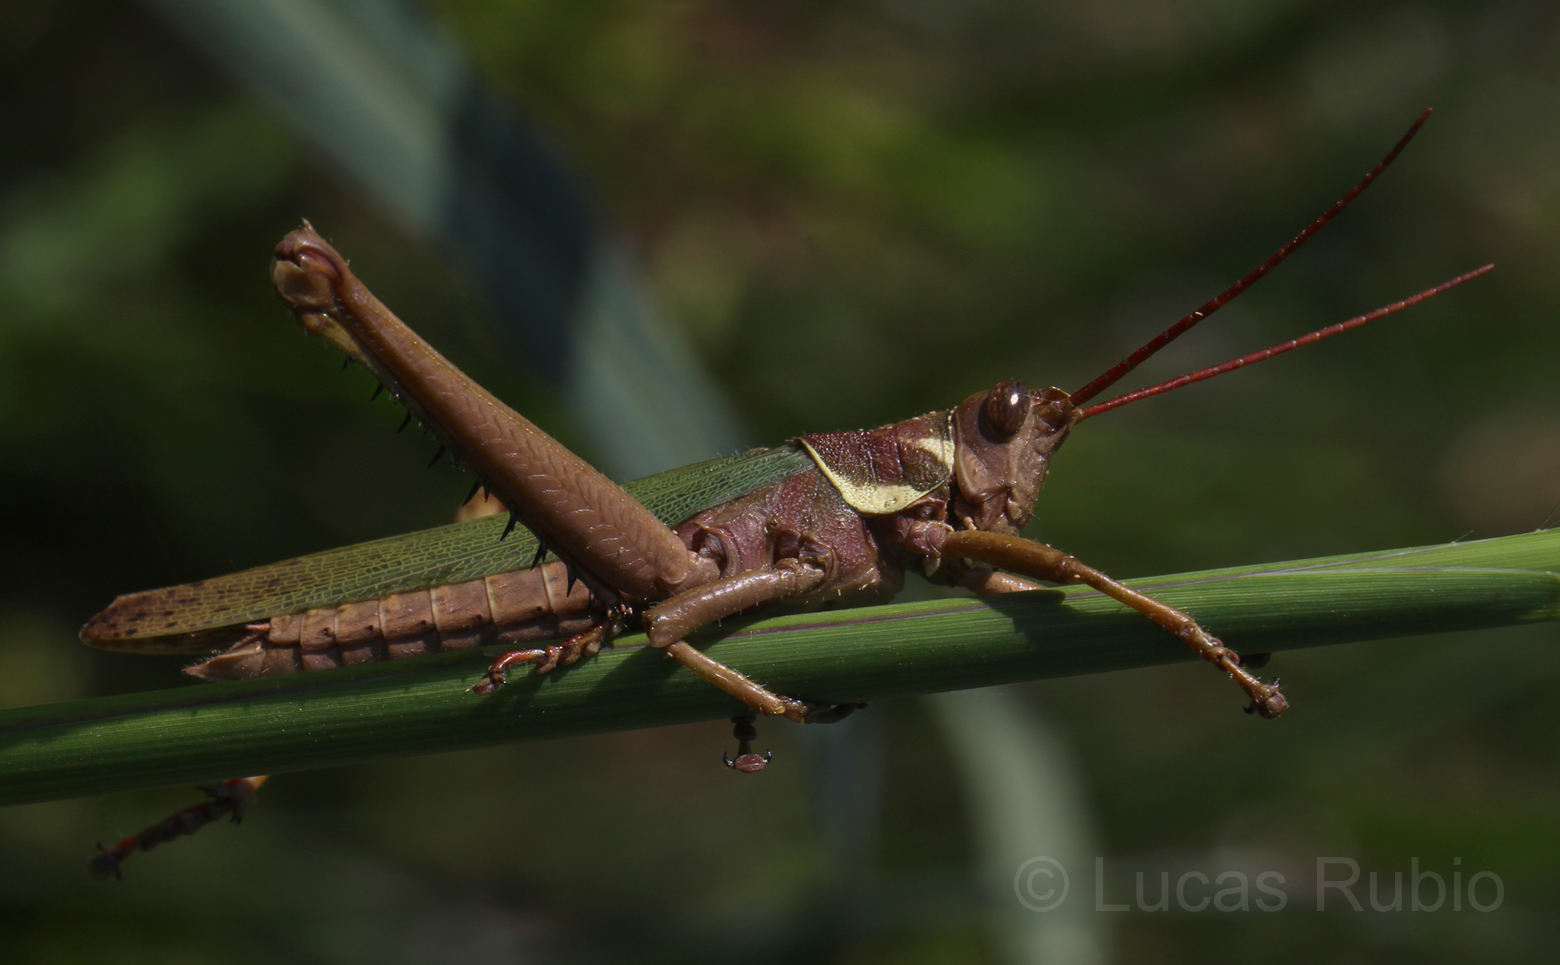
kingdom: Animalia
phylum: Arthropoda
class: Insecta
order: Orthoptera
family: Romaleidae
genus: Coryacris
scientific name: Coryacris angustipennis
